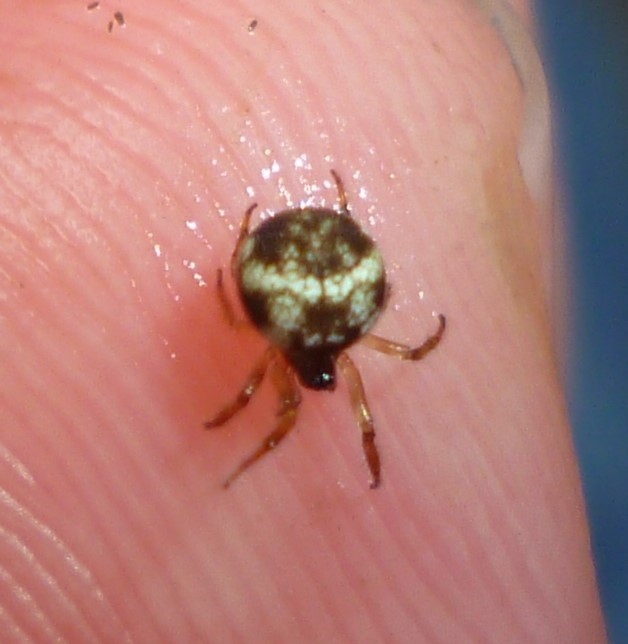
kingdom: Animalia
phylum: Arthropoda
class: Arachnida
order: Araneae
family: Theridiosomatidae
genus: Theridiosoma
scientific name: Theridiosoma gemmosum
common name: Ray spider
